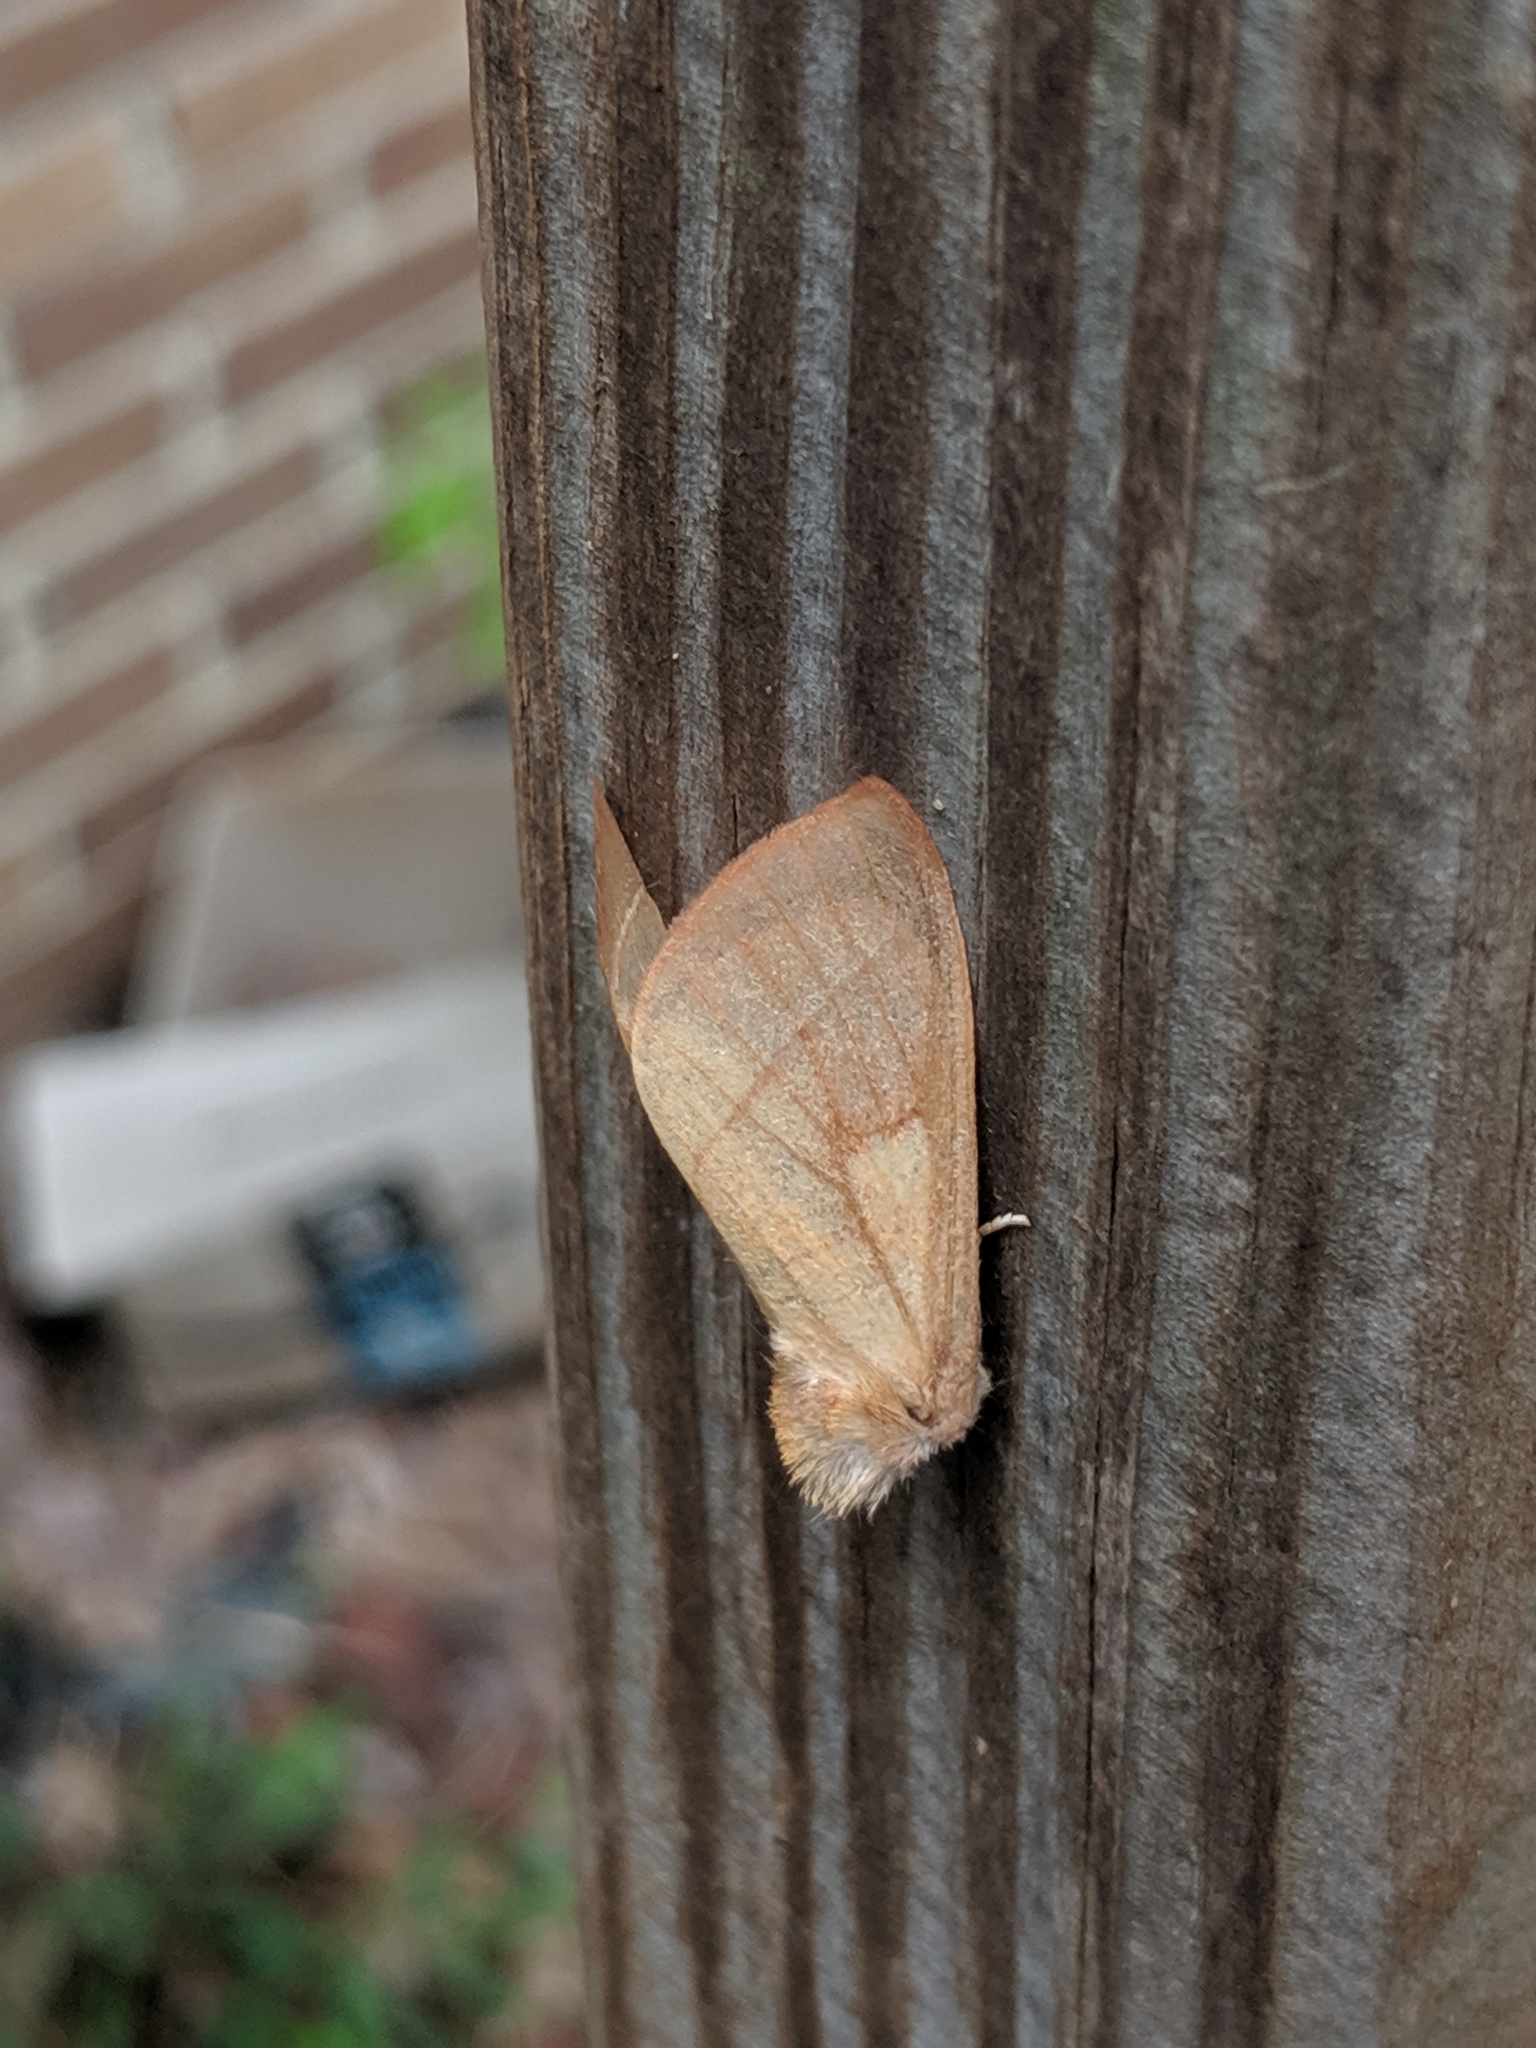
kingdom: Animalia
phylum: Arthropoda
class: Insecta
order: Lepidoptera
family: Notodontidae
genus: Nadata
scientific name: Nadata gibbosa
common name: White-dotted prominent
